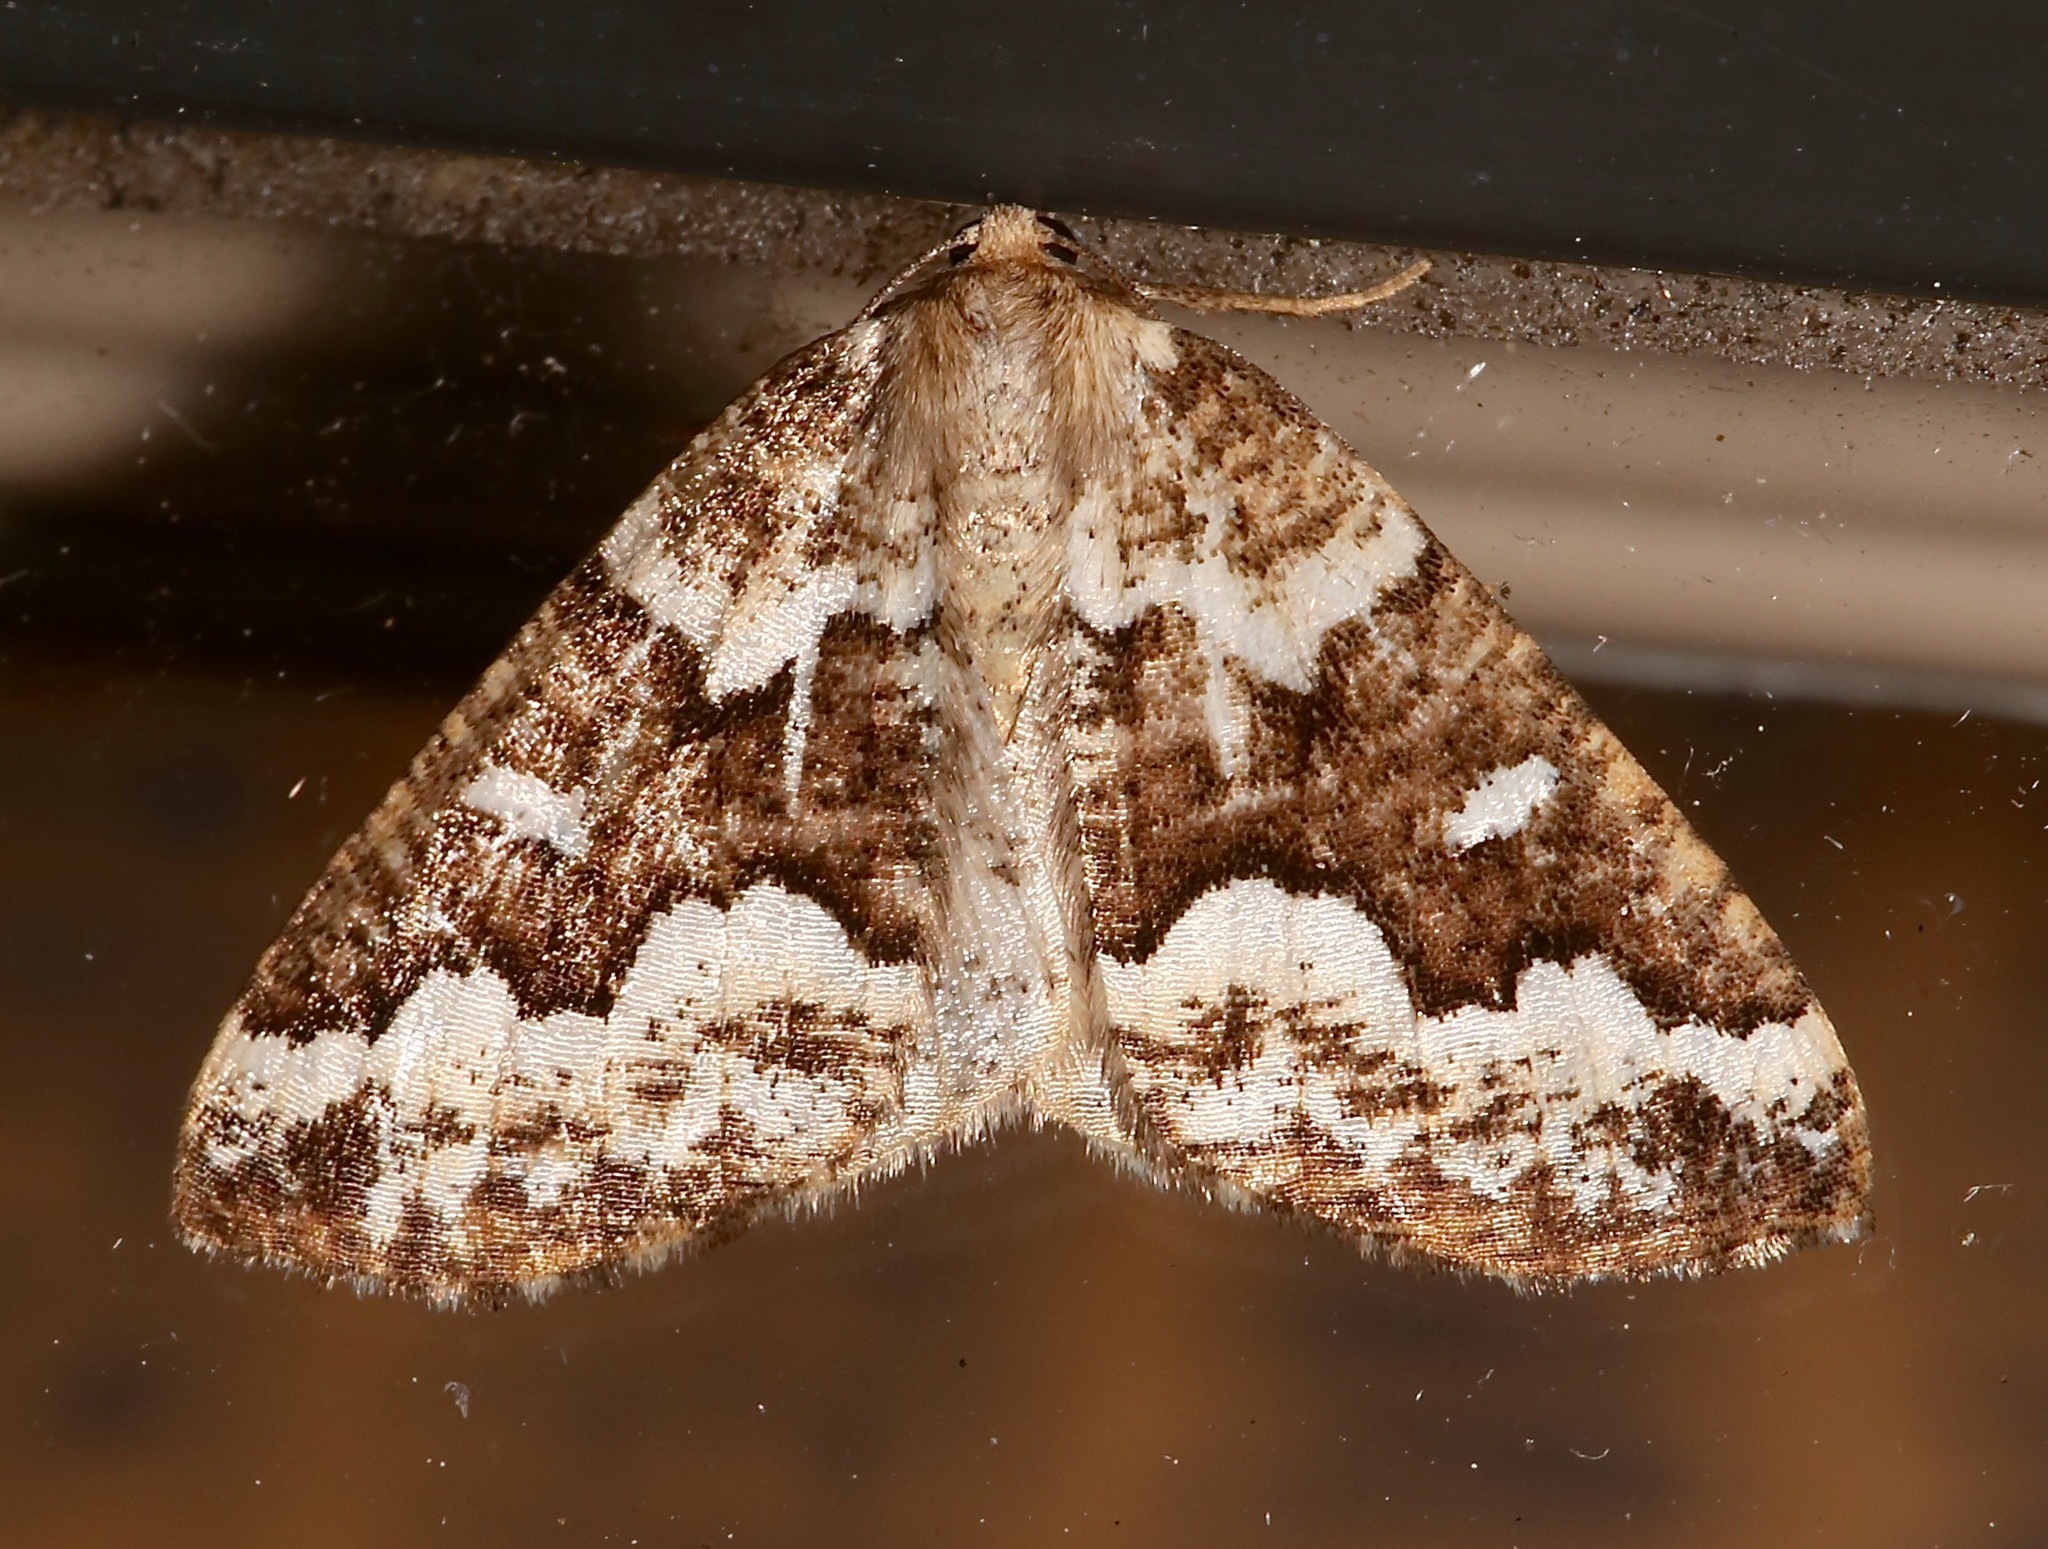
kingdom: Animalia
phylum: Arthropoda
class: Insecta
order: Lepidoptera
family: Geometridae
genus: Caripeta
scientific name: Caripeta divisata
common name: Gray spruce looper
